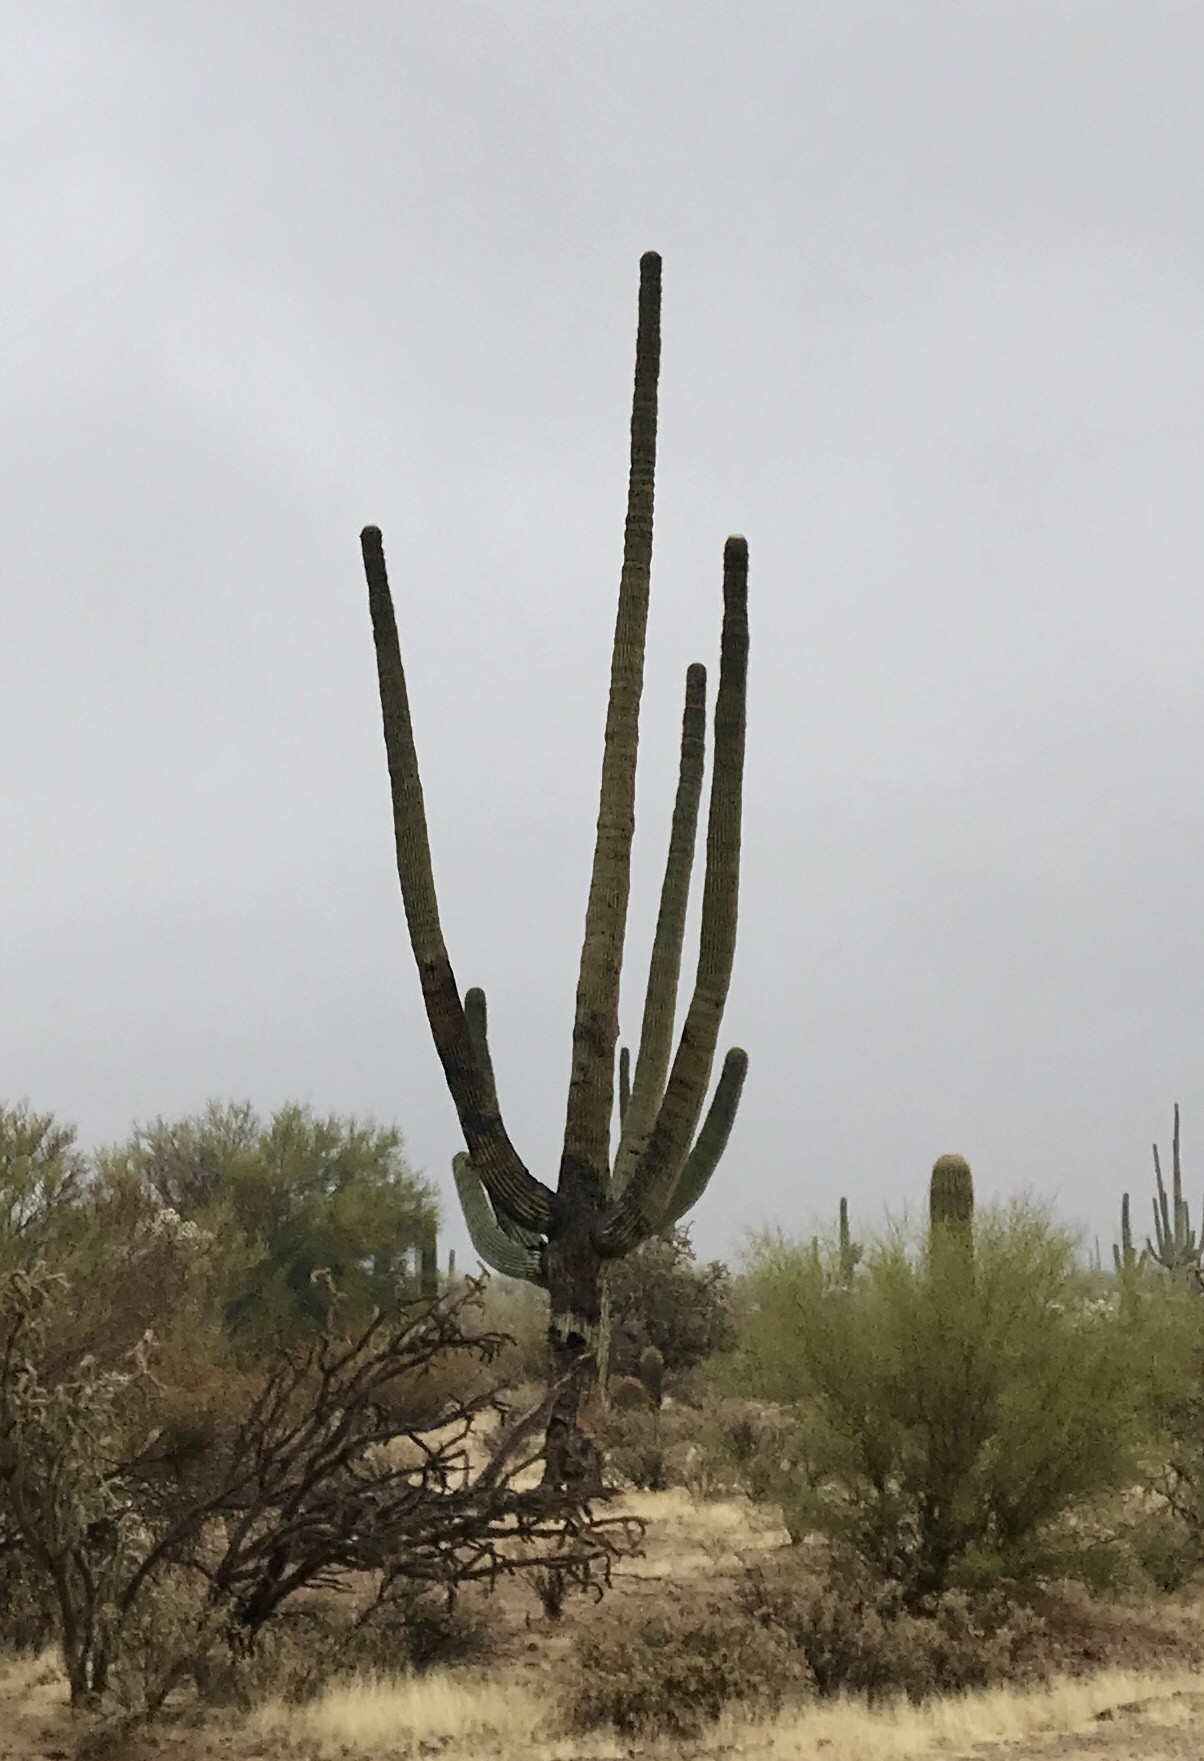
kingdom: Plantae
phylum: Tracheophyta
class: Magnoliopsida
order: Caryophyllales
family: Cactaceae
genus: Carnegiea
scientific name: Carnegiea gigantea
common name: Saguaro
